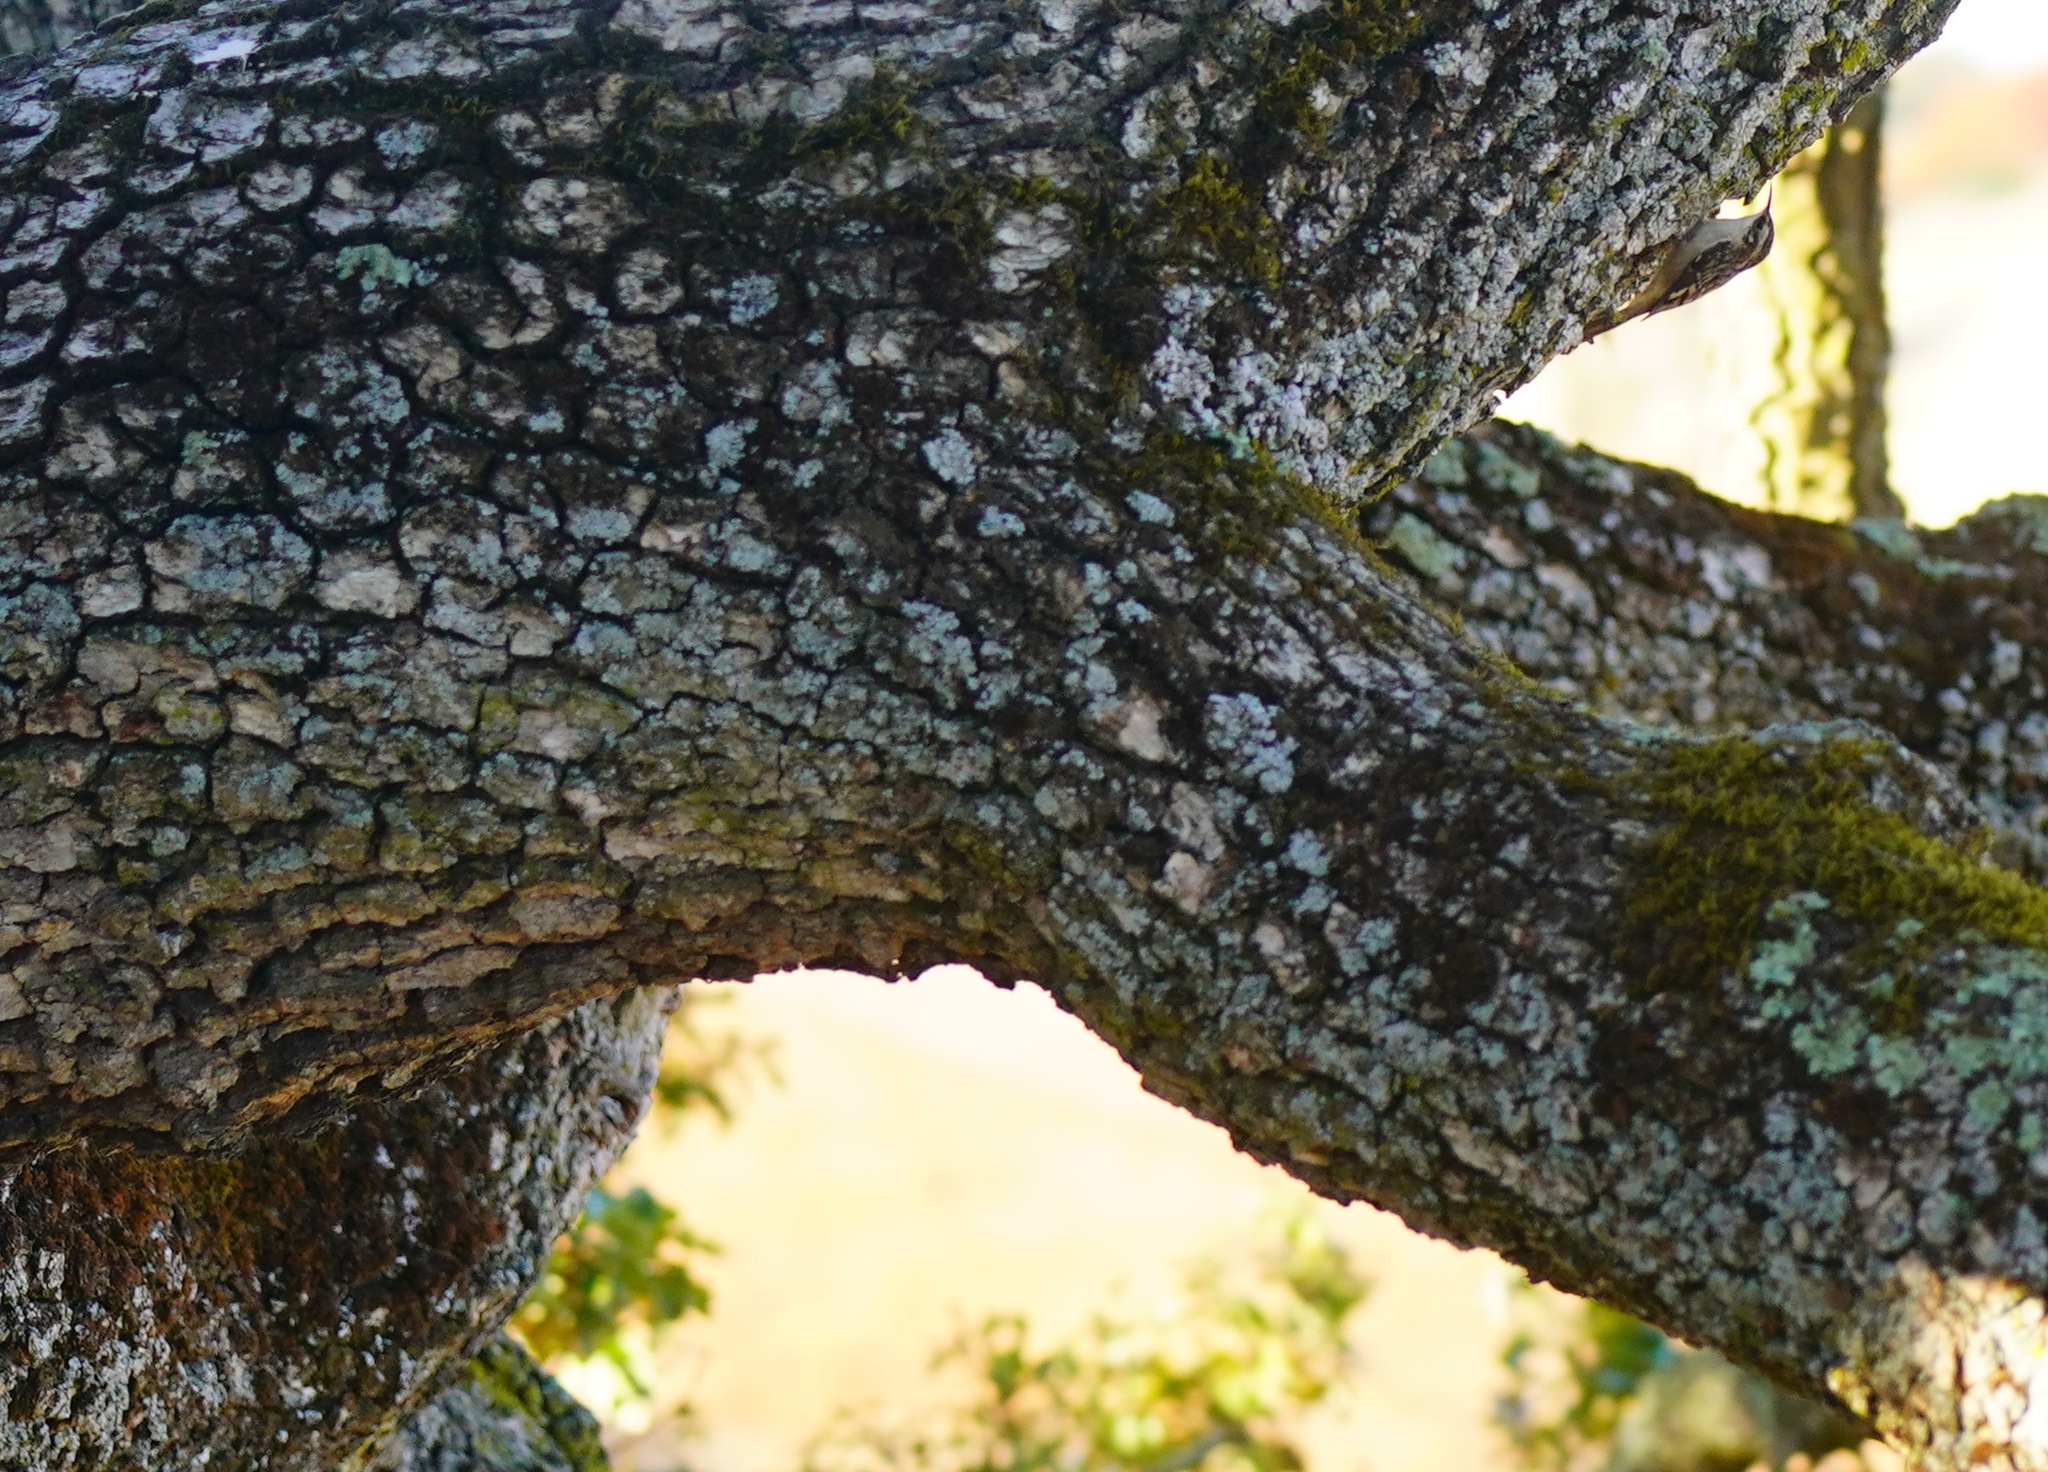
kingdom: Animalia
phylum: Chordata
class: Aves
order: Passeriformes
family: Certhiidae
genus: Certhia
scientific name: Certhia americana
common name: Brown creeper
